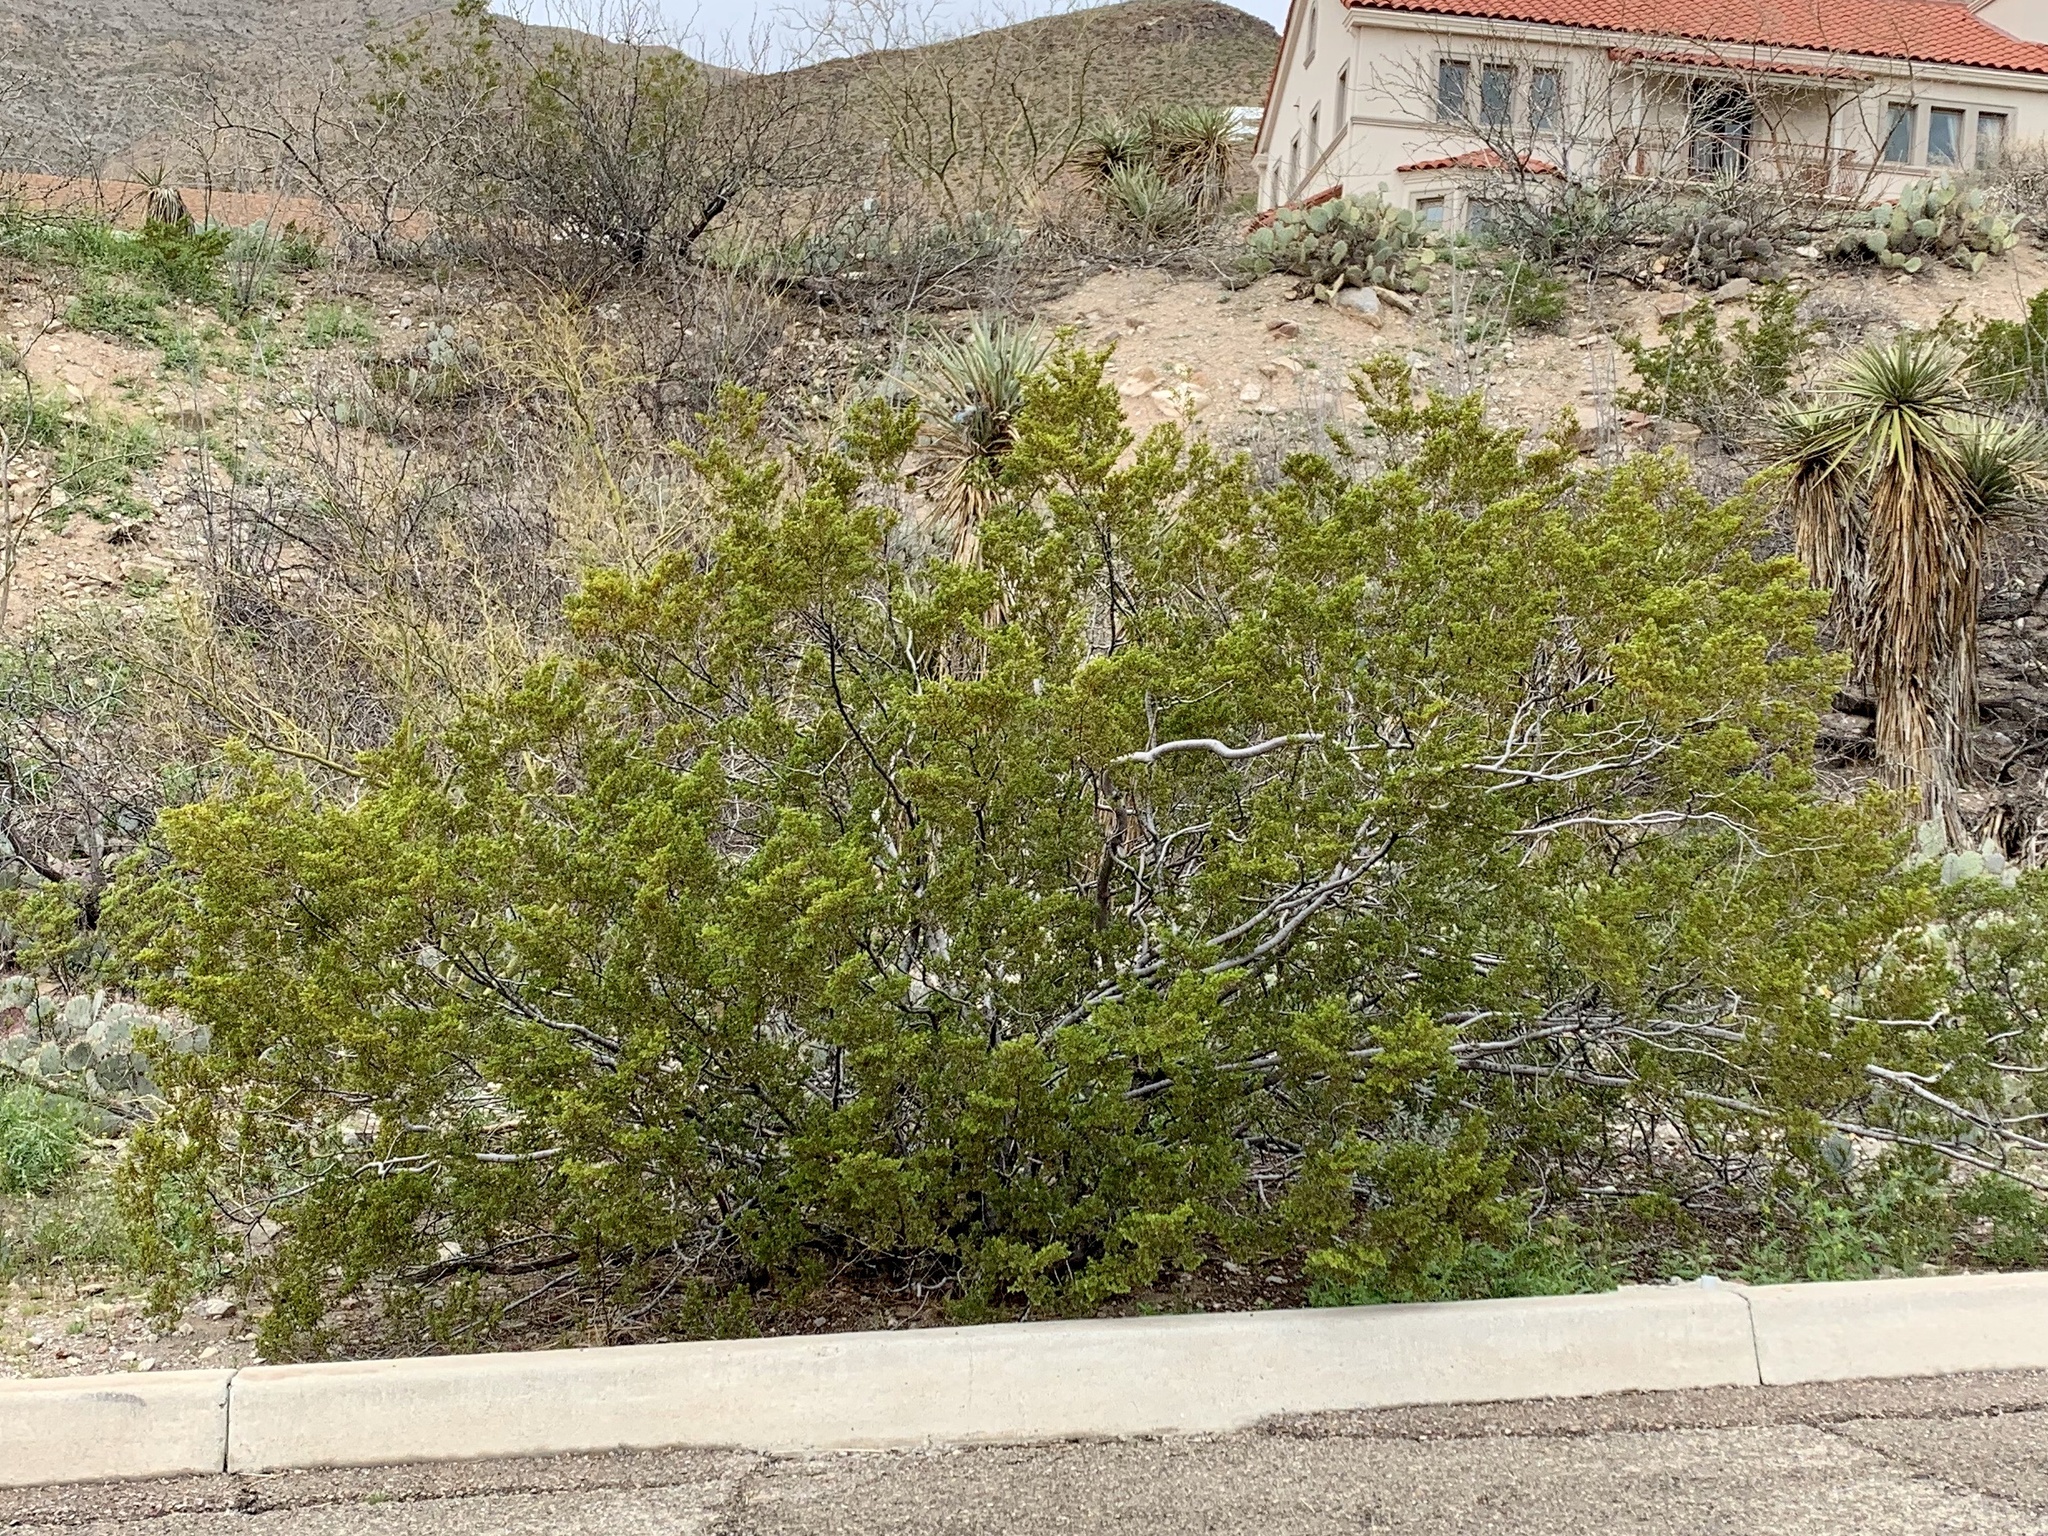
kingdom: Plantae
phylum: Tracheophyta
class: Magnoliopsida
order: Zygophyllales
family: Zygophyllaceae
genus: Larrea
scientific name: Larrea tridentata
